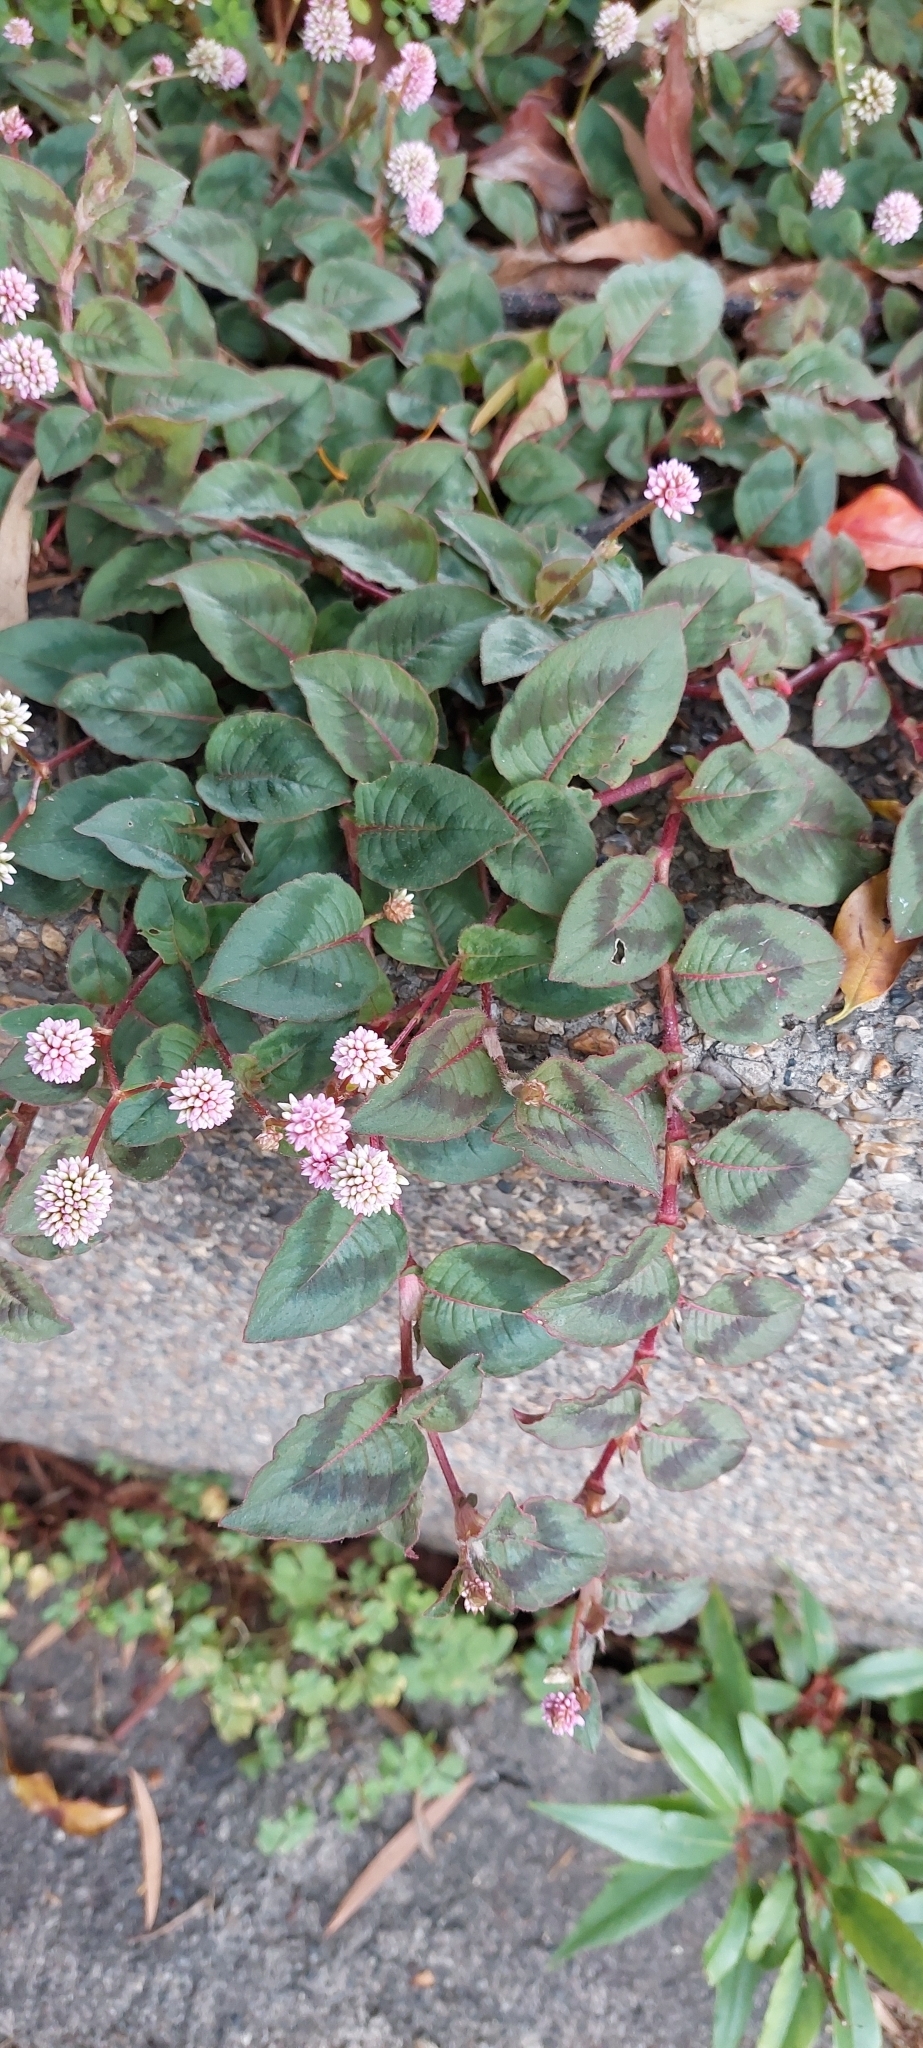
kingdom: Plantae
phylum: Tracheophyta
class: Magnoliopsida
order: Caryophyllales
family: Polygonaceae
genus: Persicaria
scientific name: Persicaria capitata
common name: Pinkhead smartweed
